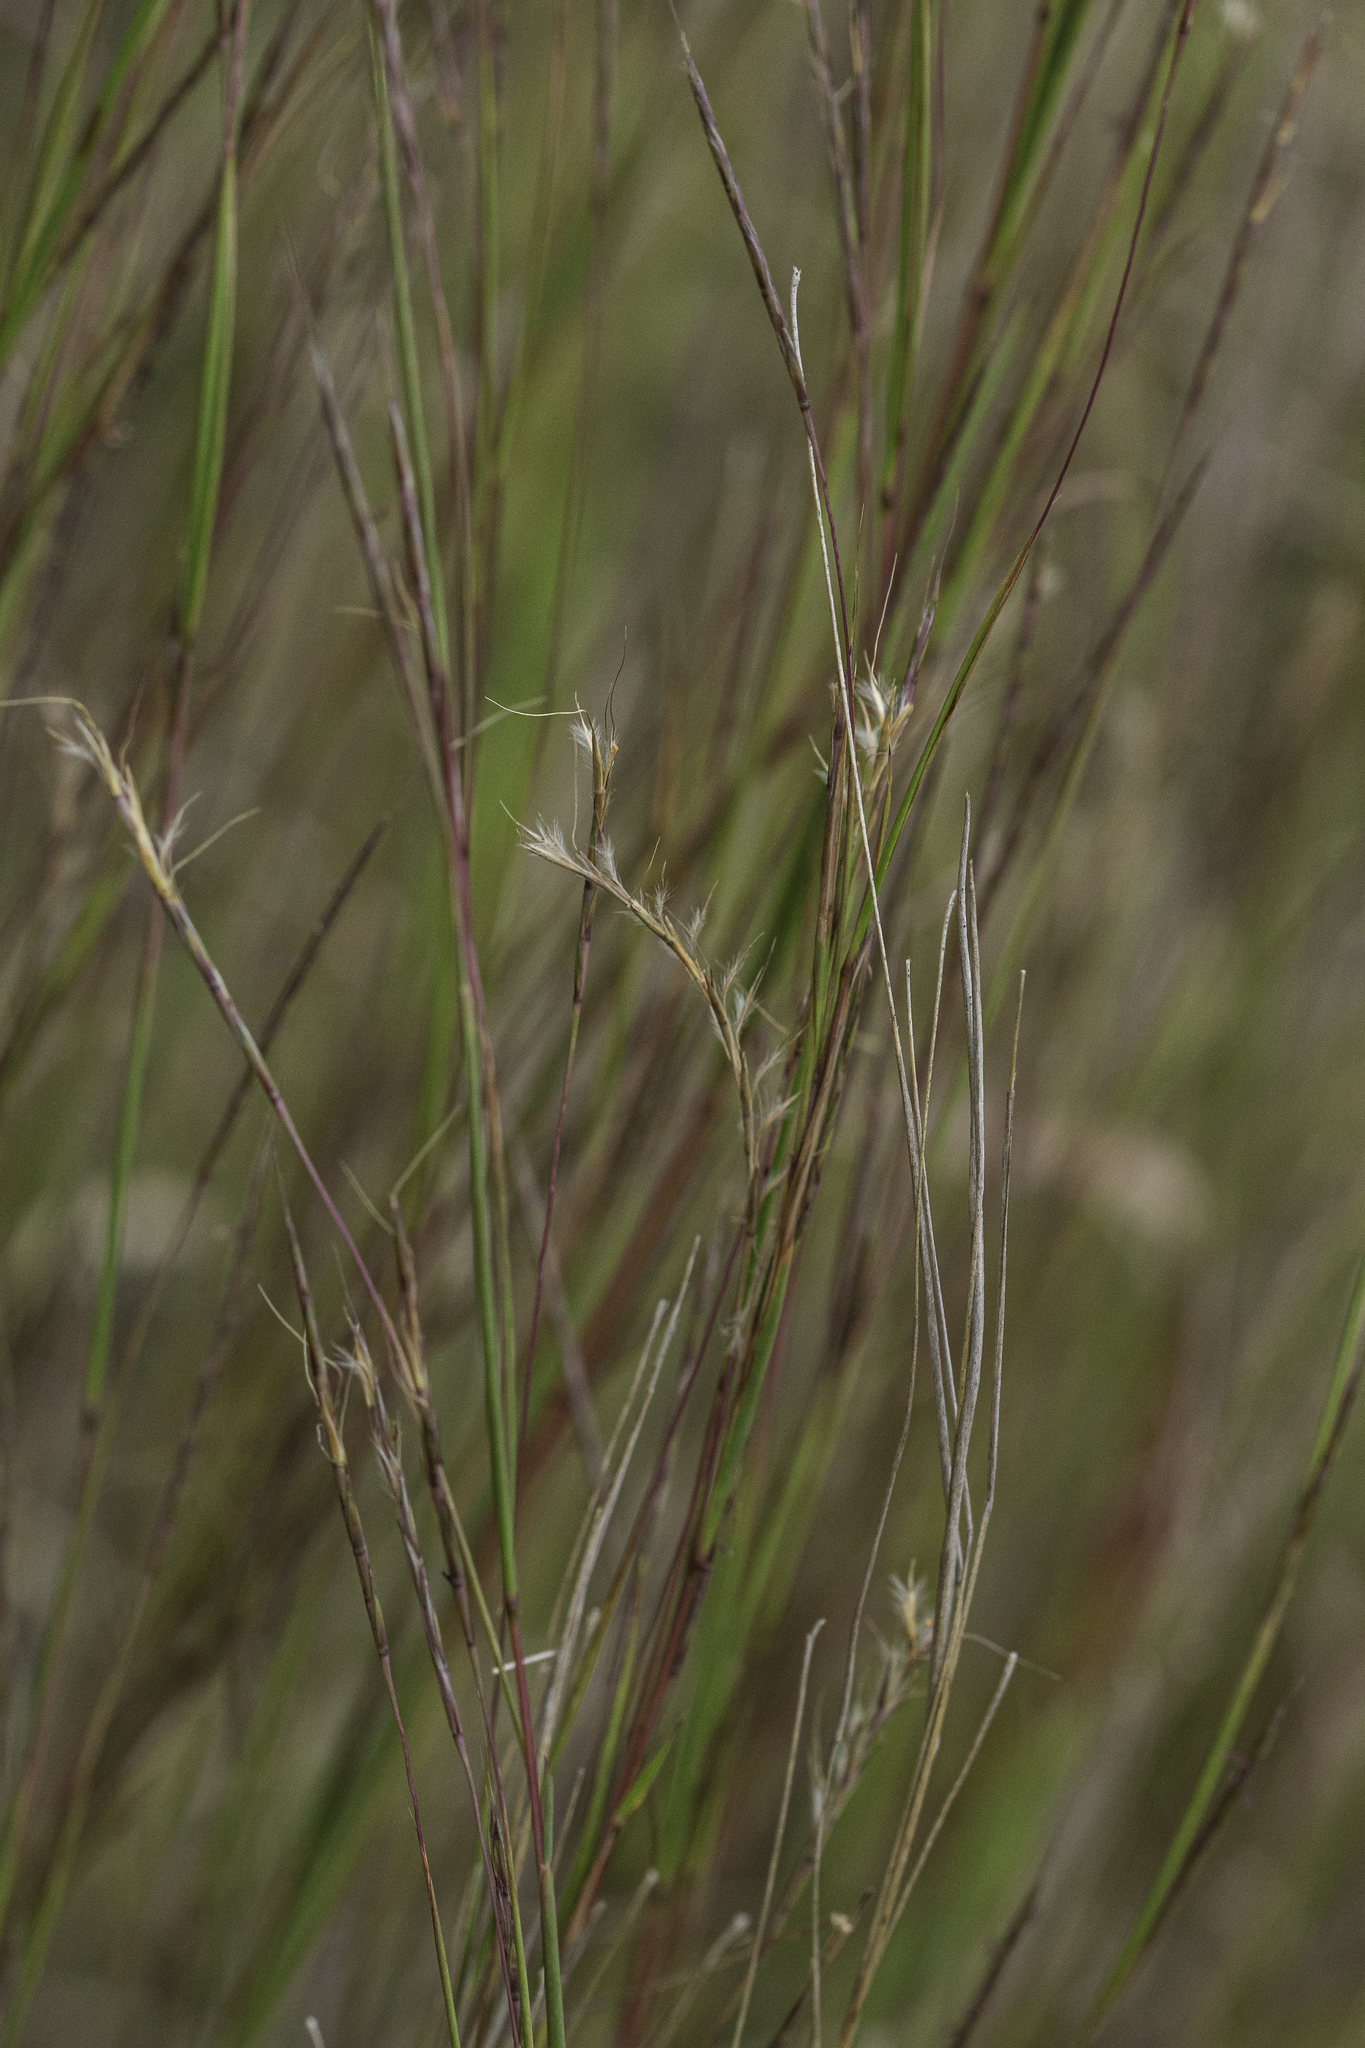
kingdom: Plantae
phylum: Tracheophyta
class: Liliopsida
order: Poales
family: Poaceae
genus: Schizachyrium
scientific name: Schizachyrium scoparium
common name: Little bluestem
